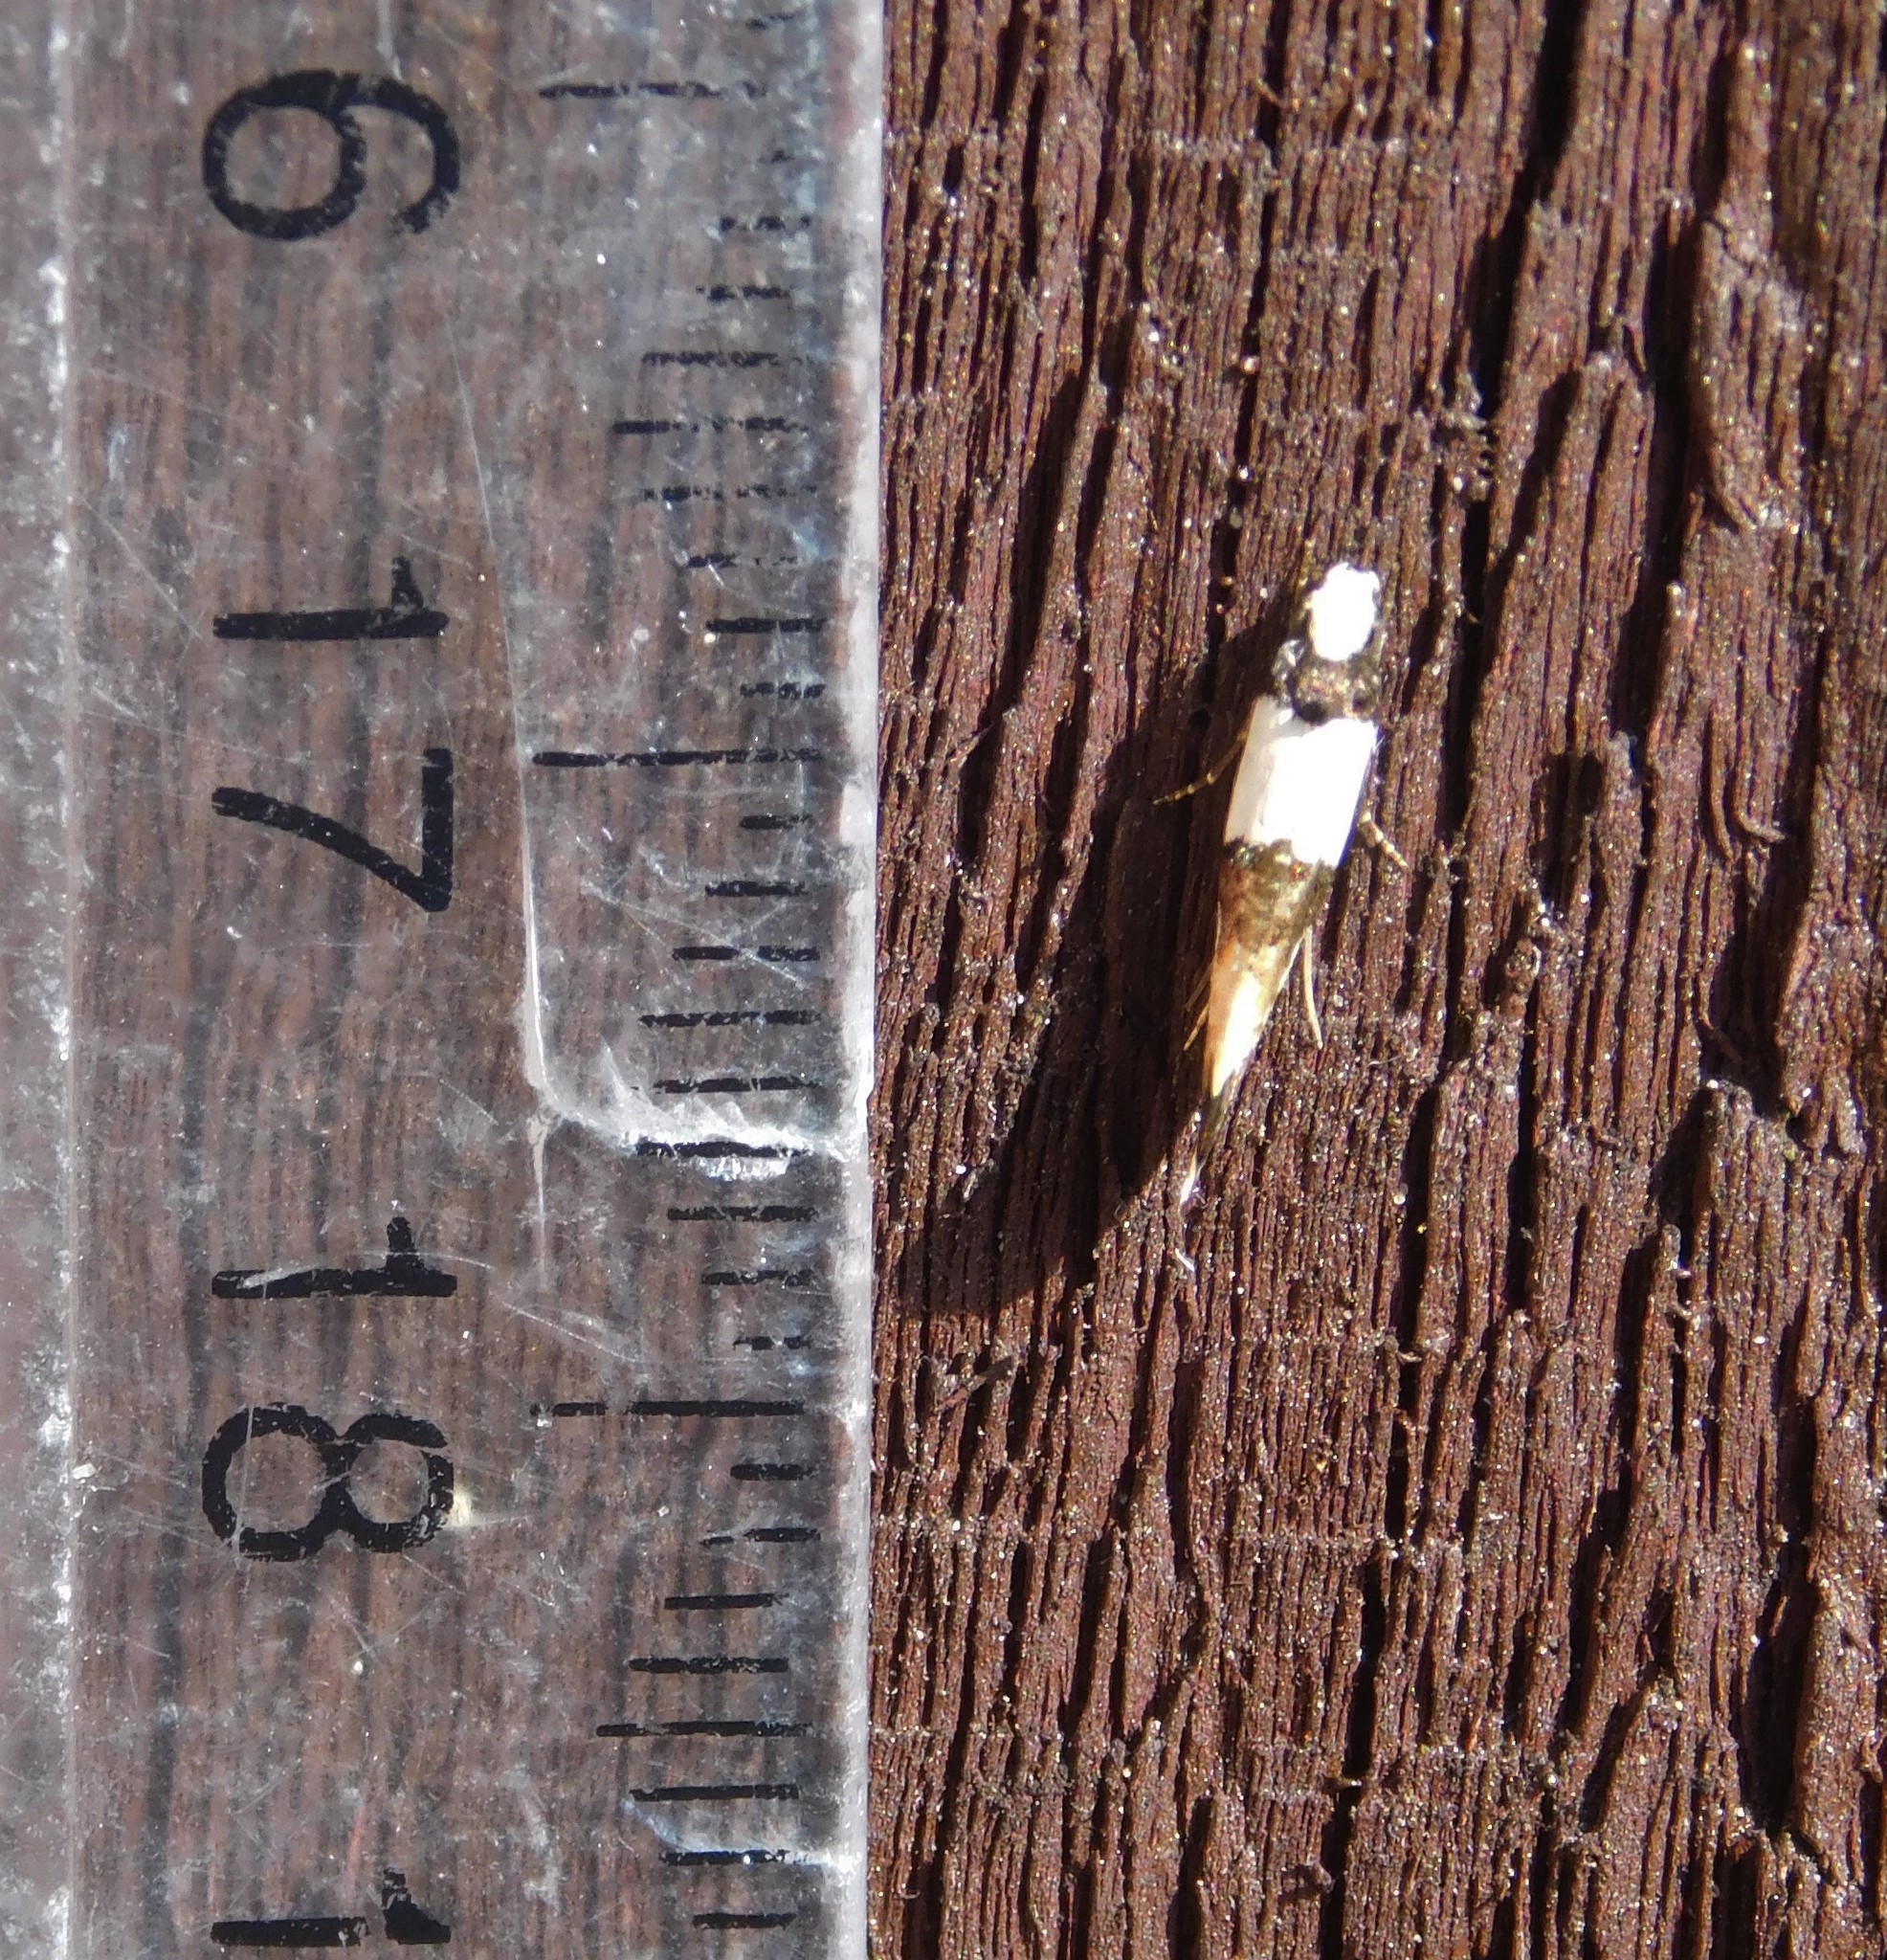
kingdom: Animalia
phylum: Arthropoda
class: Insecta
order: Lepidoptera
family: Tineidae
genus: Monopis
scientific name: Monopis icterogastra
